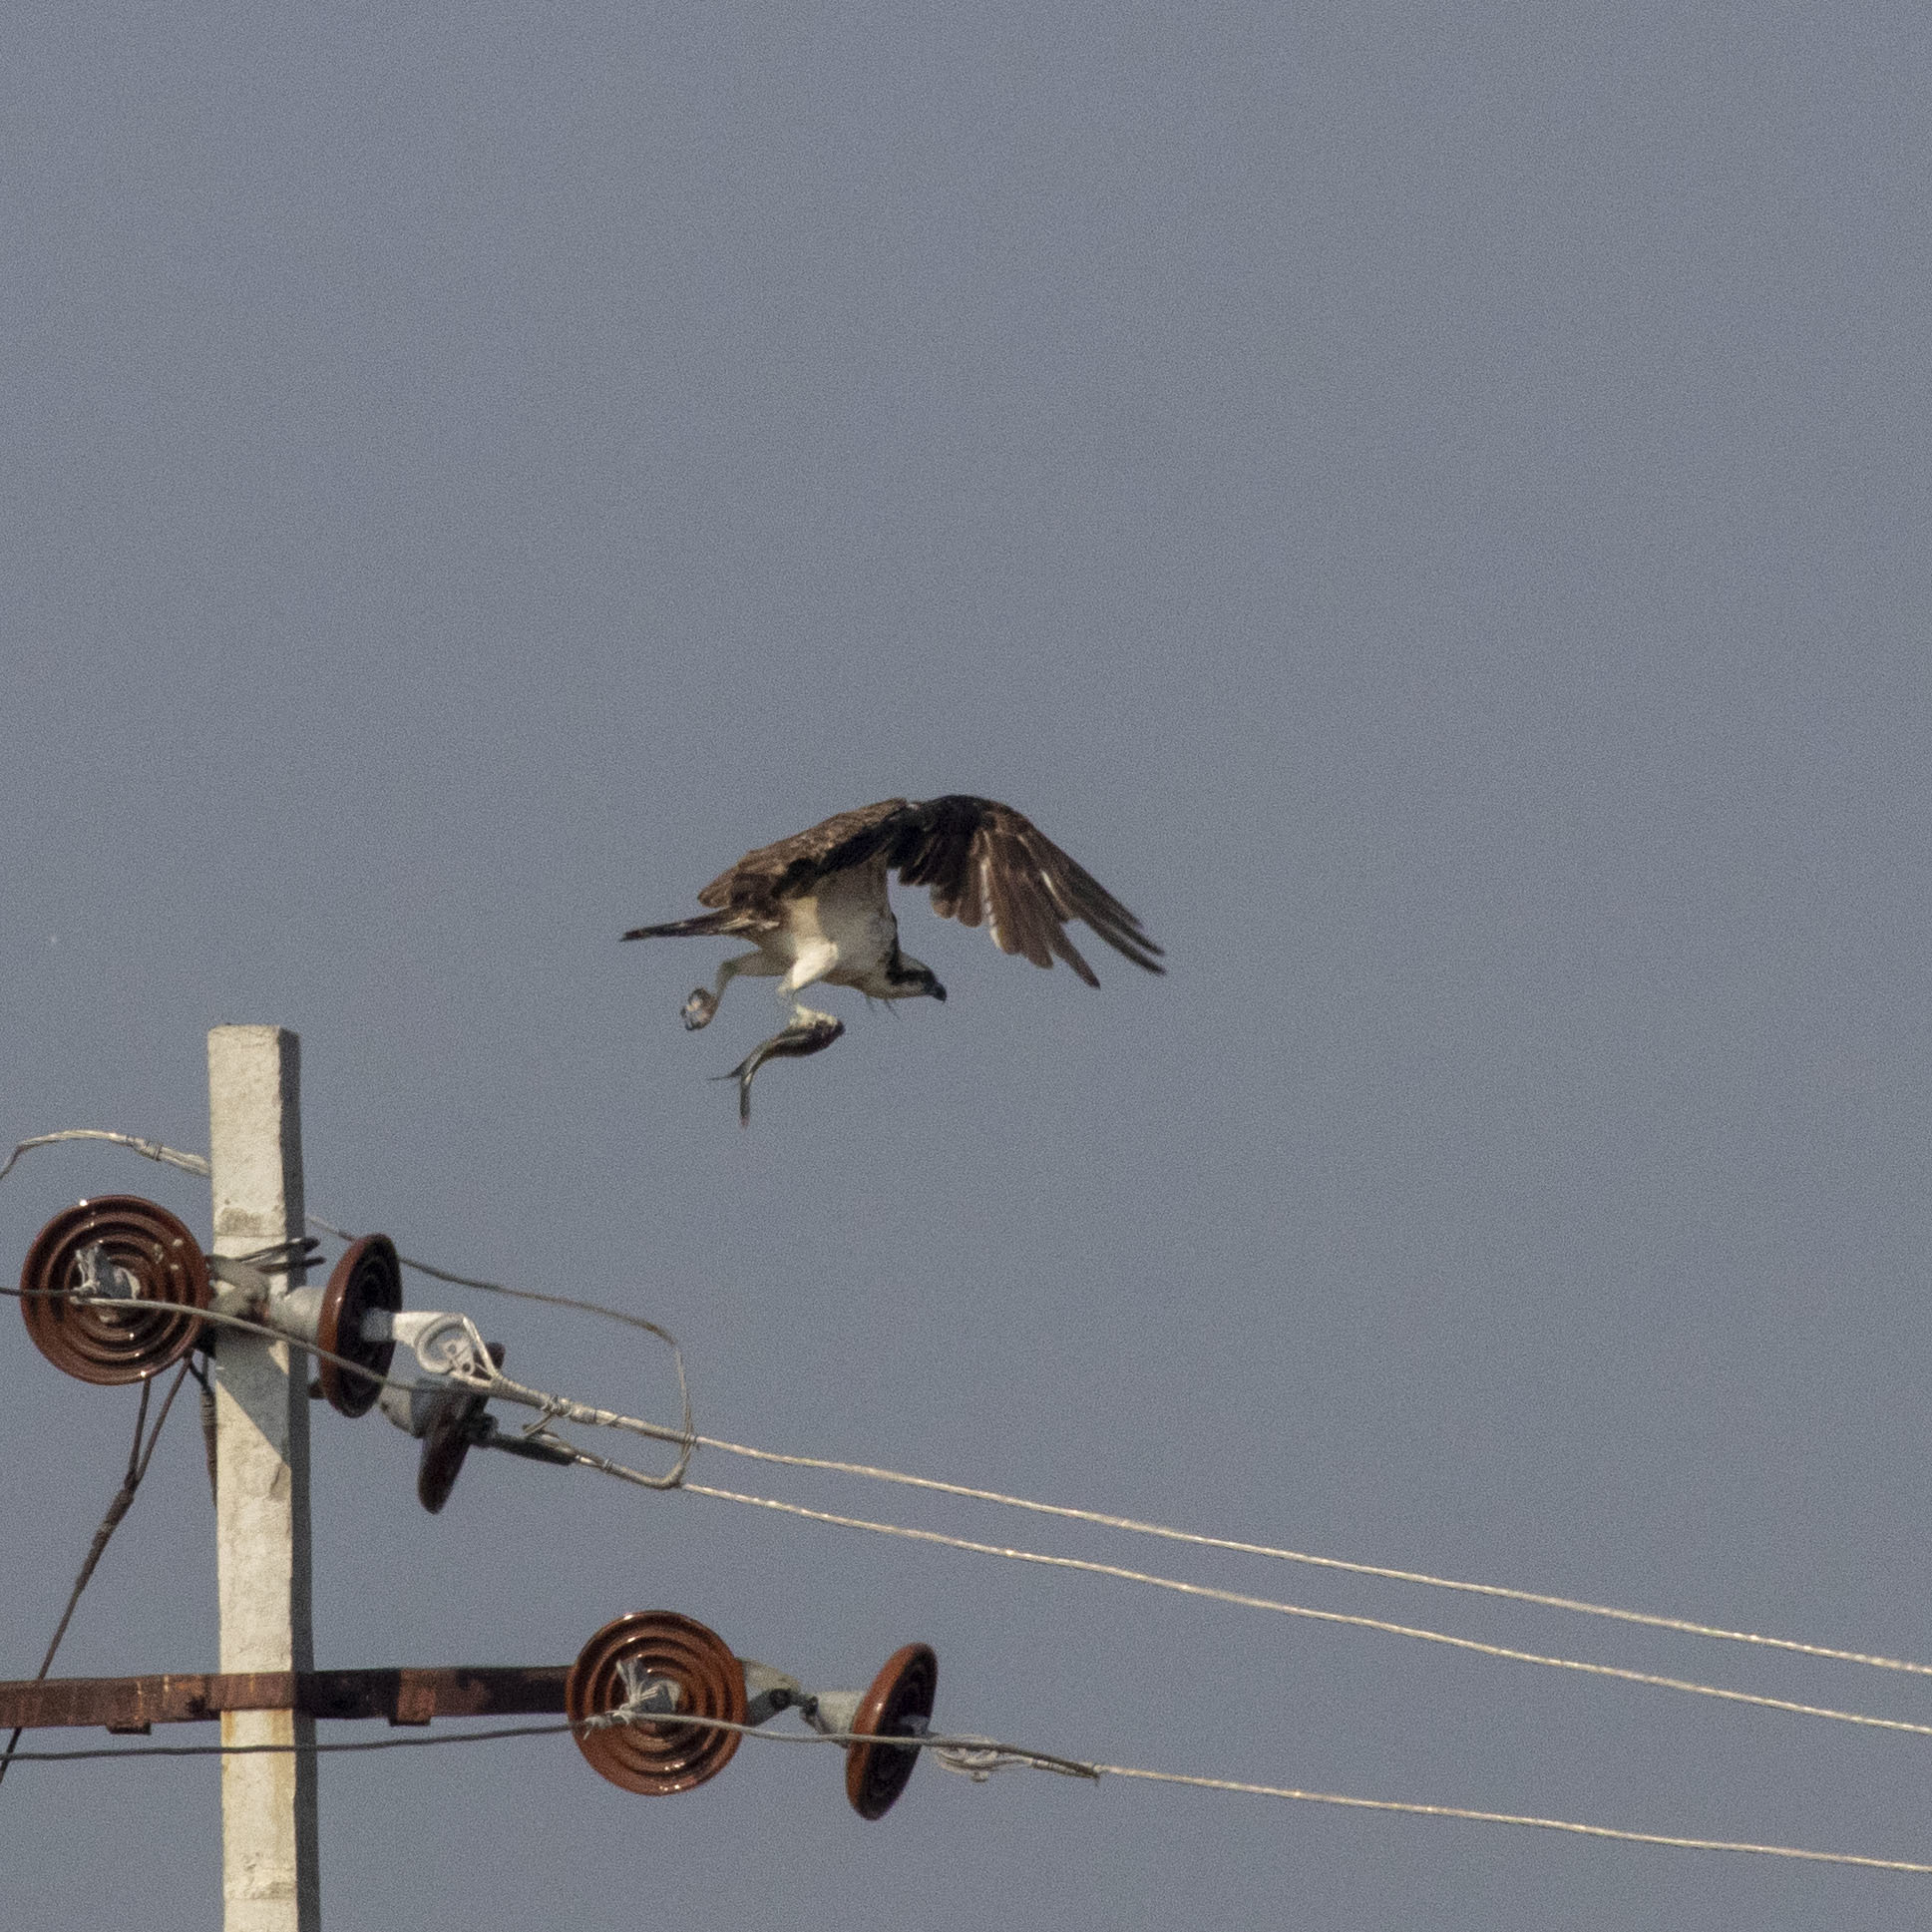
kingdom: Animalia
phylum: Chordata
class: Aves
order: Accipitriformes
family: Pandionidae
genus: Pandion
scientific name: Pandion haliaetus
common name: Osprey
